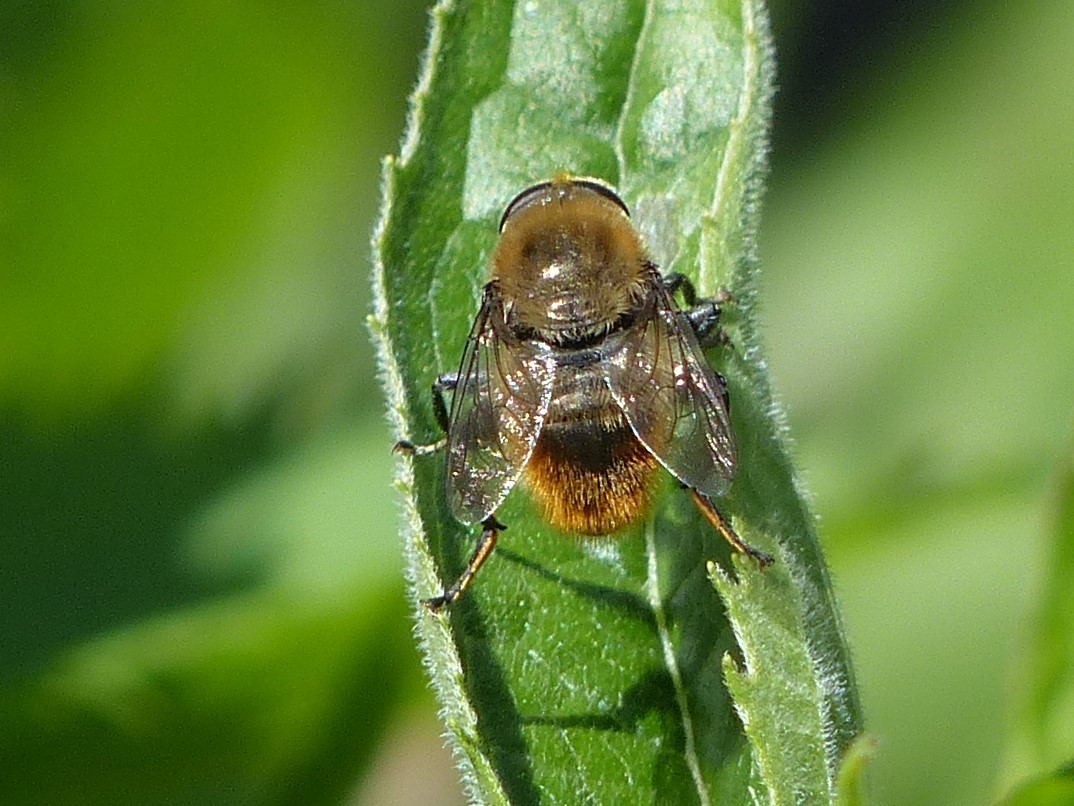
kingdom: Animalia
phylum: Arthropoda
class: Insecta
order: Diptera
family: Syrphidae
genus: Merodon
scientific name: Merodon equestris
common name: Greater bulb-fly
